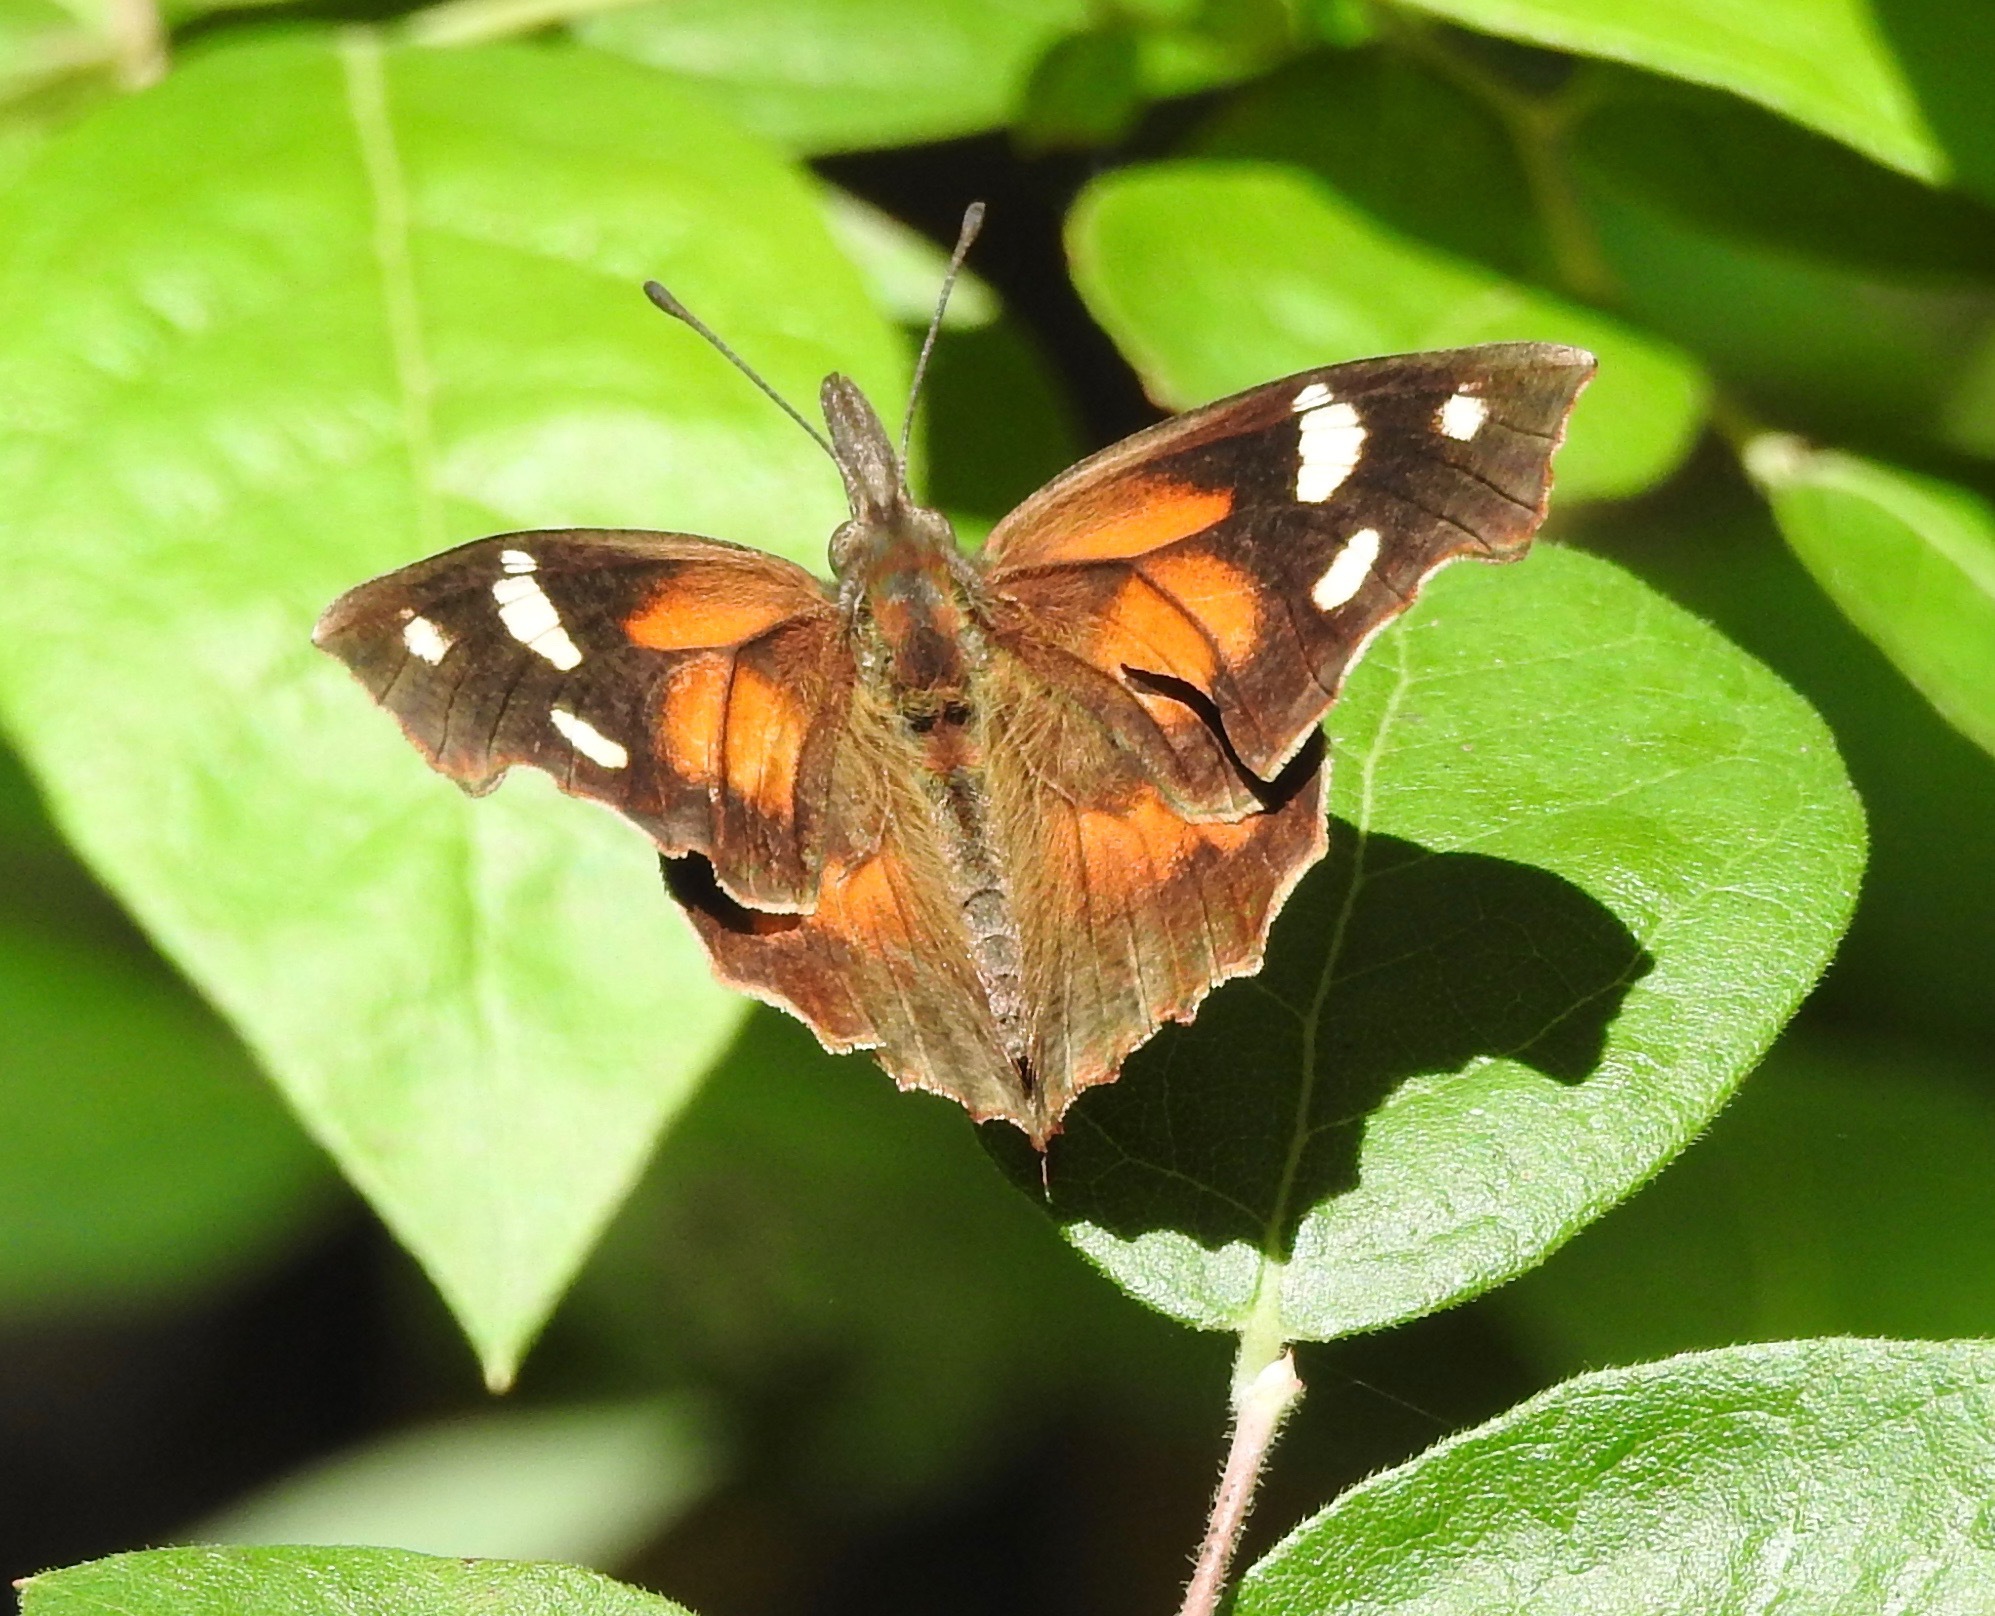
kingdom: Animalia
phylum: Arthropoda
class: Insecta
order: Lepidoptera
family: Nymphalidae
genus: Libytheana
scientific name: Libytheana carinenta
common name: American snout
